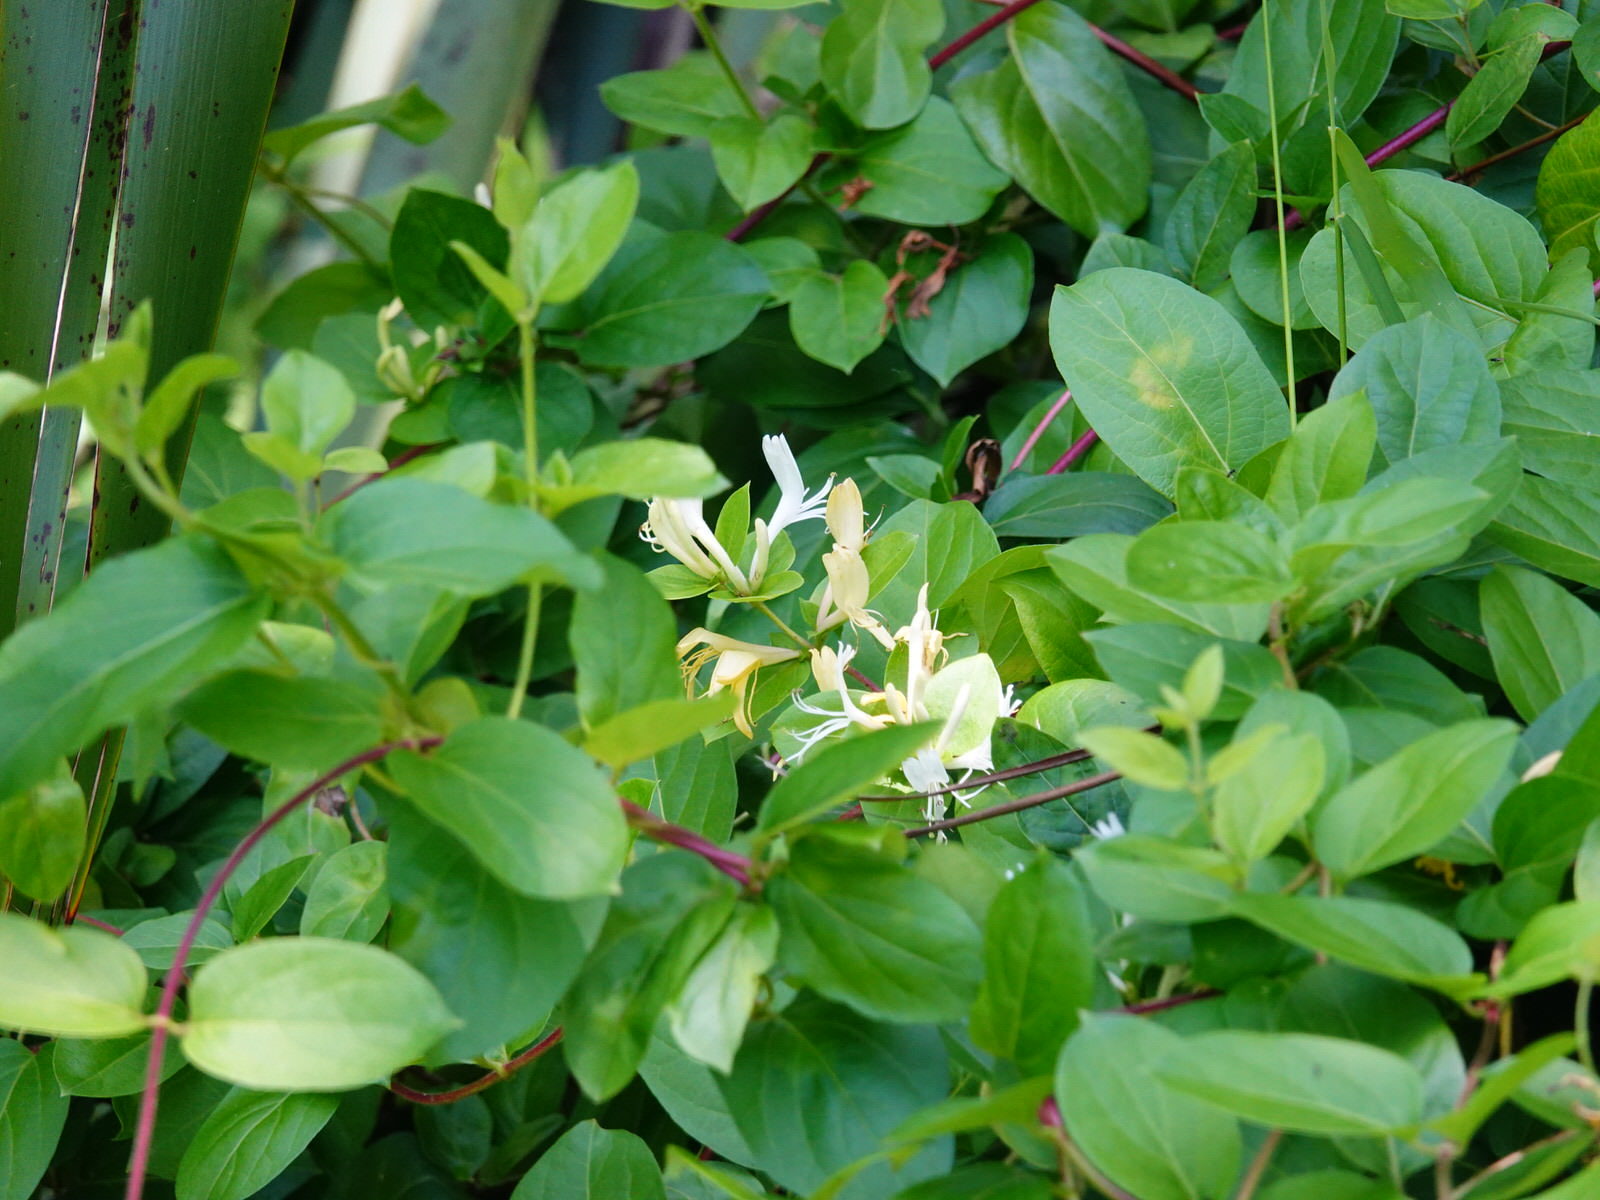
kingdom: Plantae
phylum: Tracheophyta
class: Magnoliopsida
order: Dipsacales
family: Caprifoliaceae
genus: Lonicera
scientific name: Lonicera japonica
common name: Japanese honeysuckle
